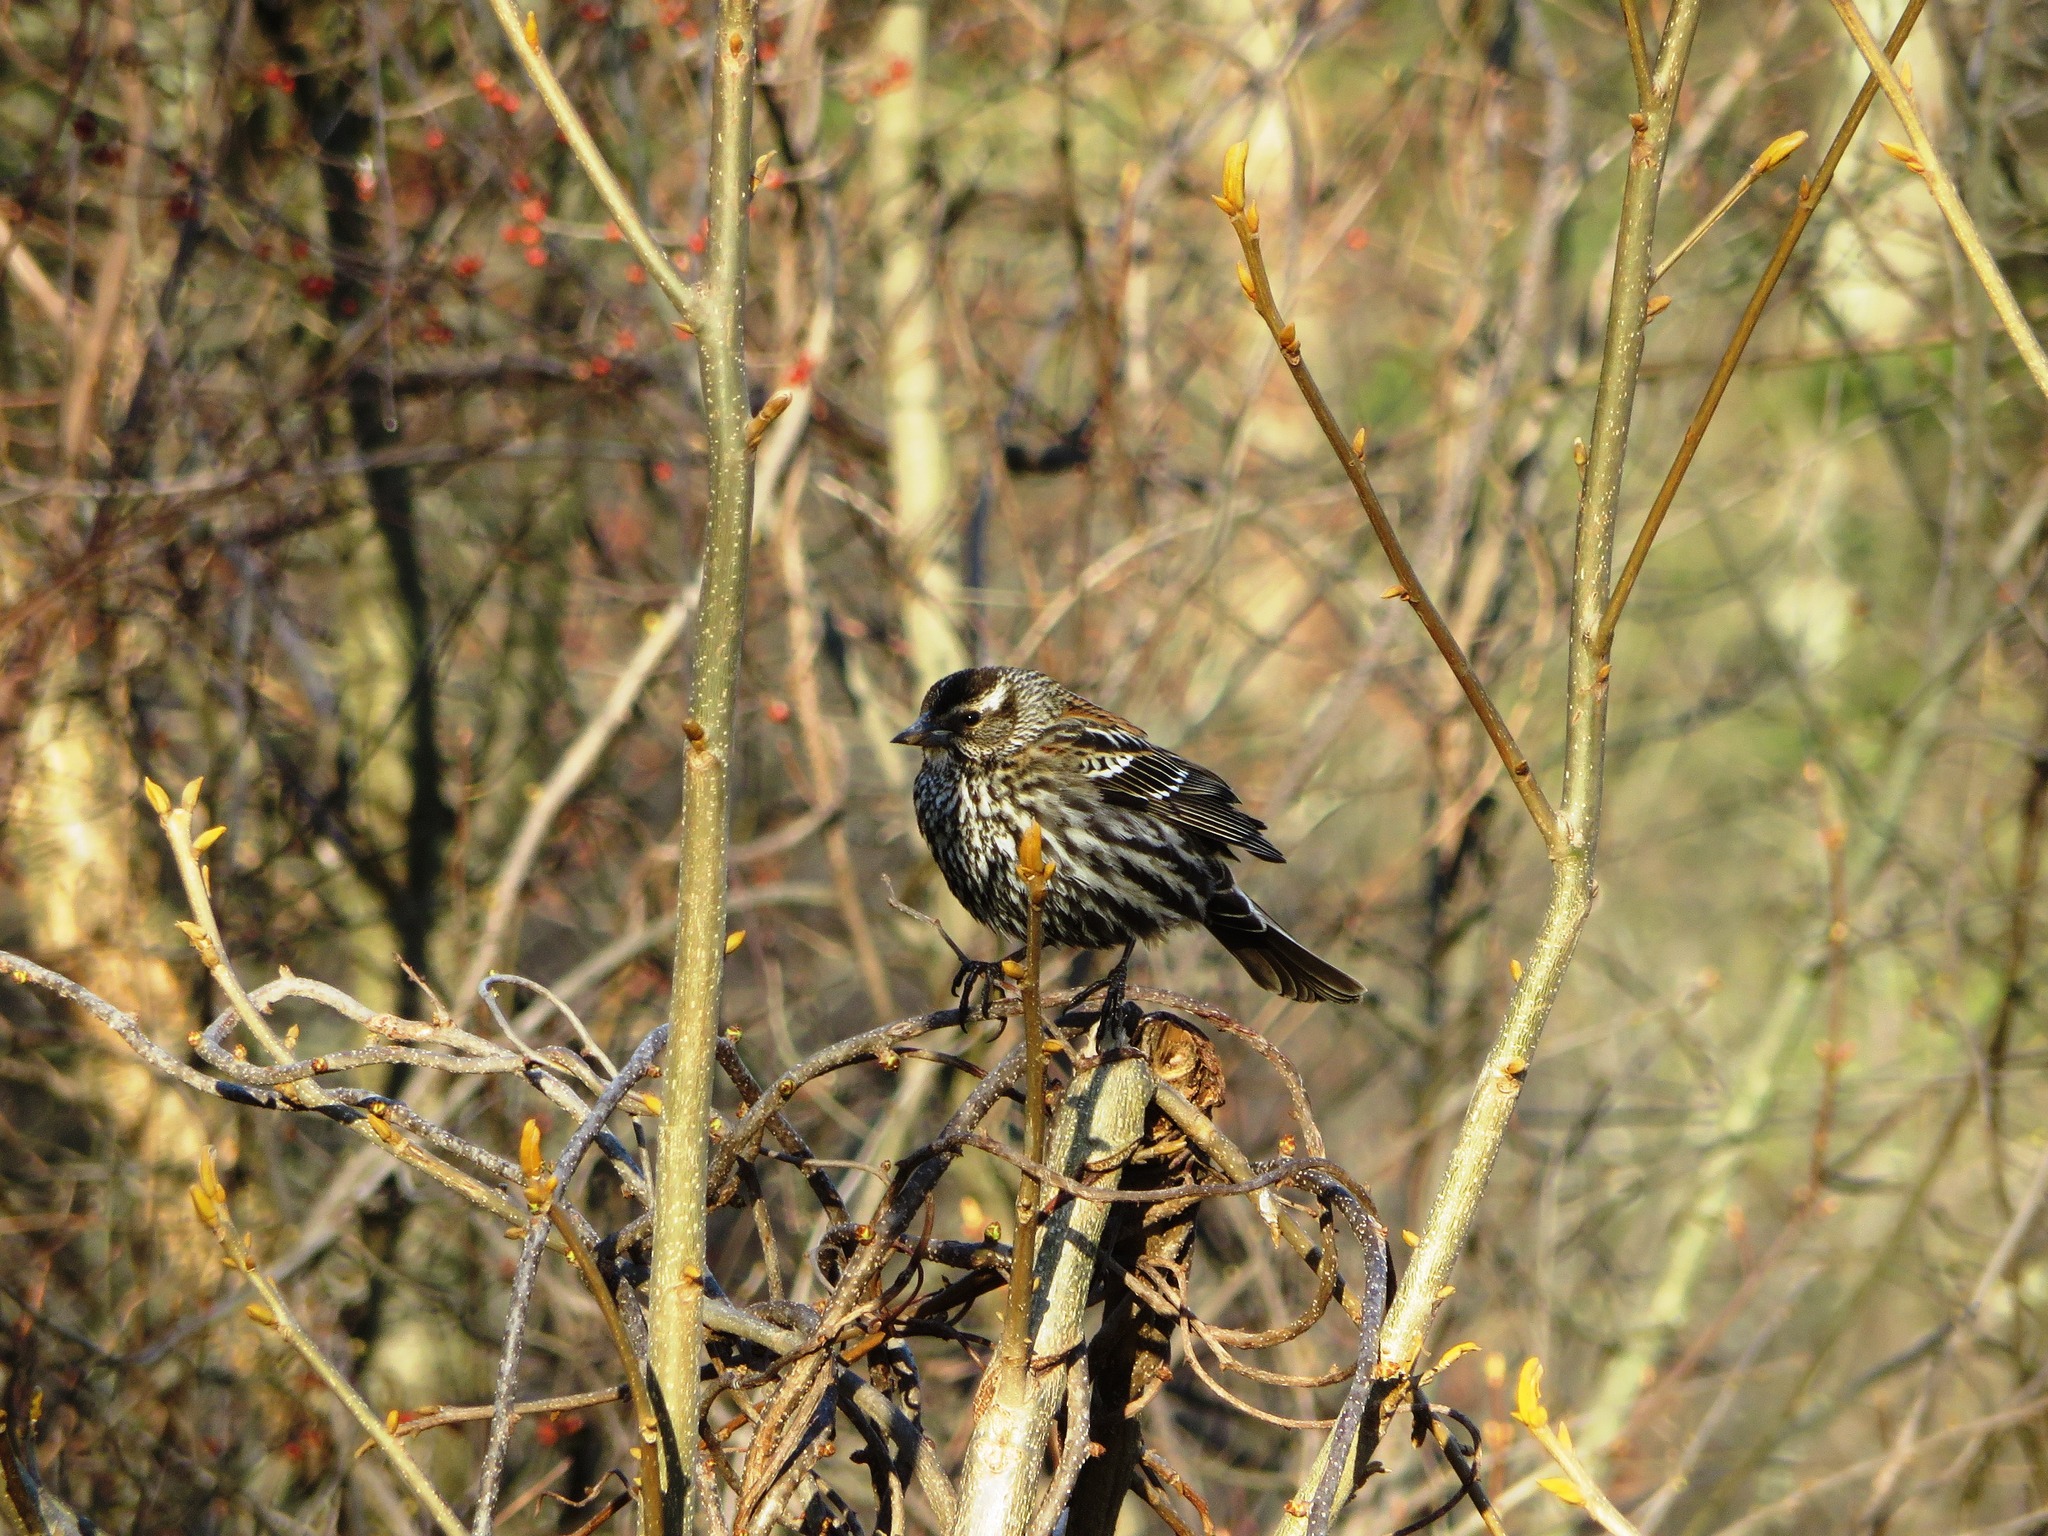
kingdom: Animalia
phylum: Chordata
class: Aves
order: Passeriformes
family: Icteridae
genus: Agelaius
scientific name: Agelaius phoeniceus
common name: Red-winged blackbird
